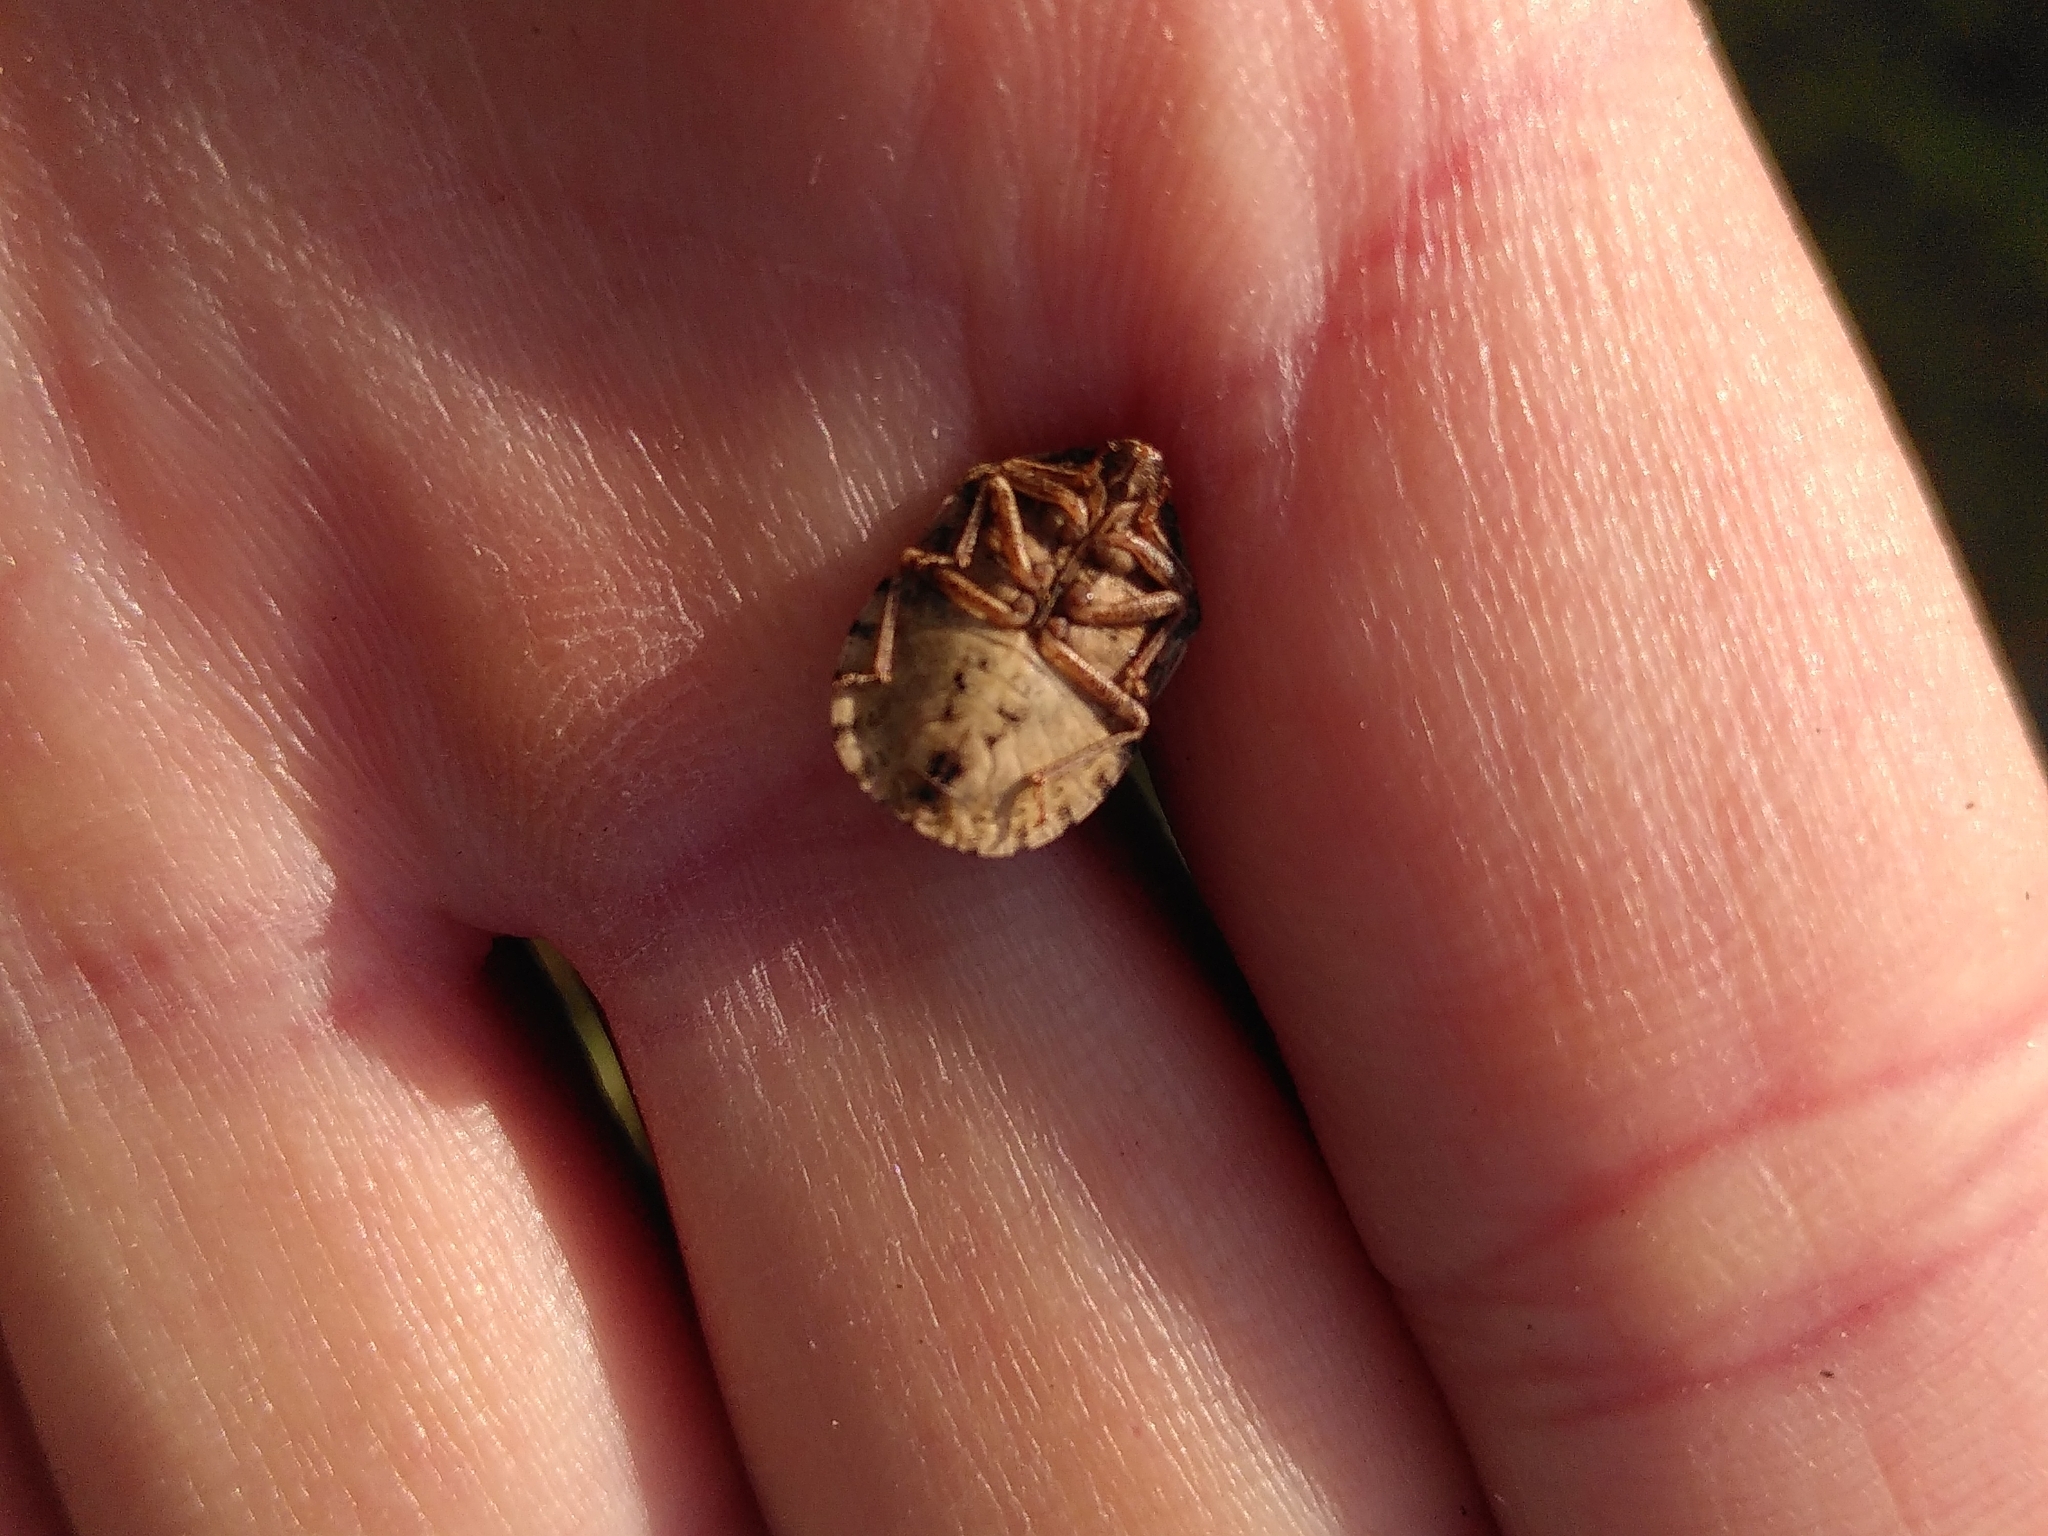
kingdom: Animalia
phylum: Arthropoda
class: Insecta
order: Hemiptera
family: Scutelleridae
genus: Eurygaster
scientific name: Eurygaster maura
